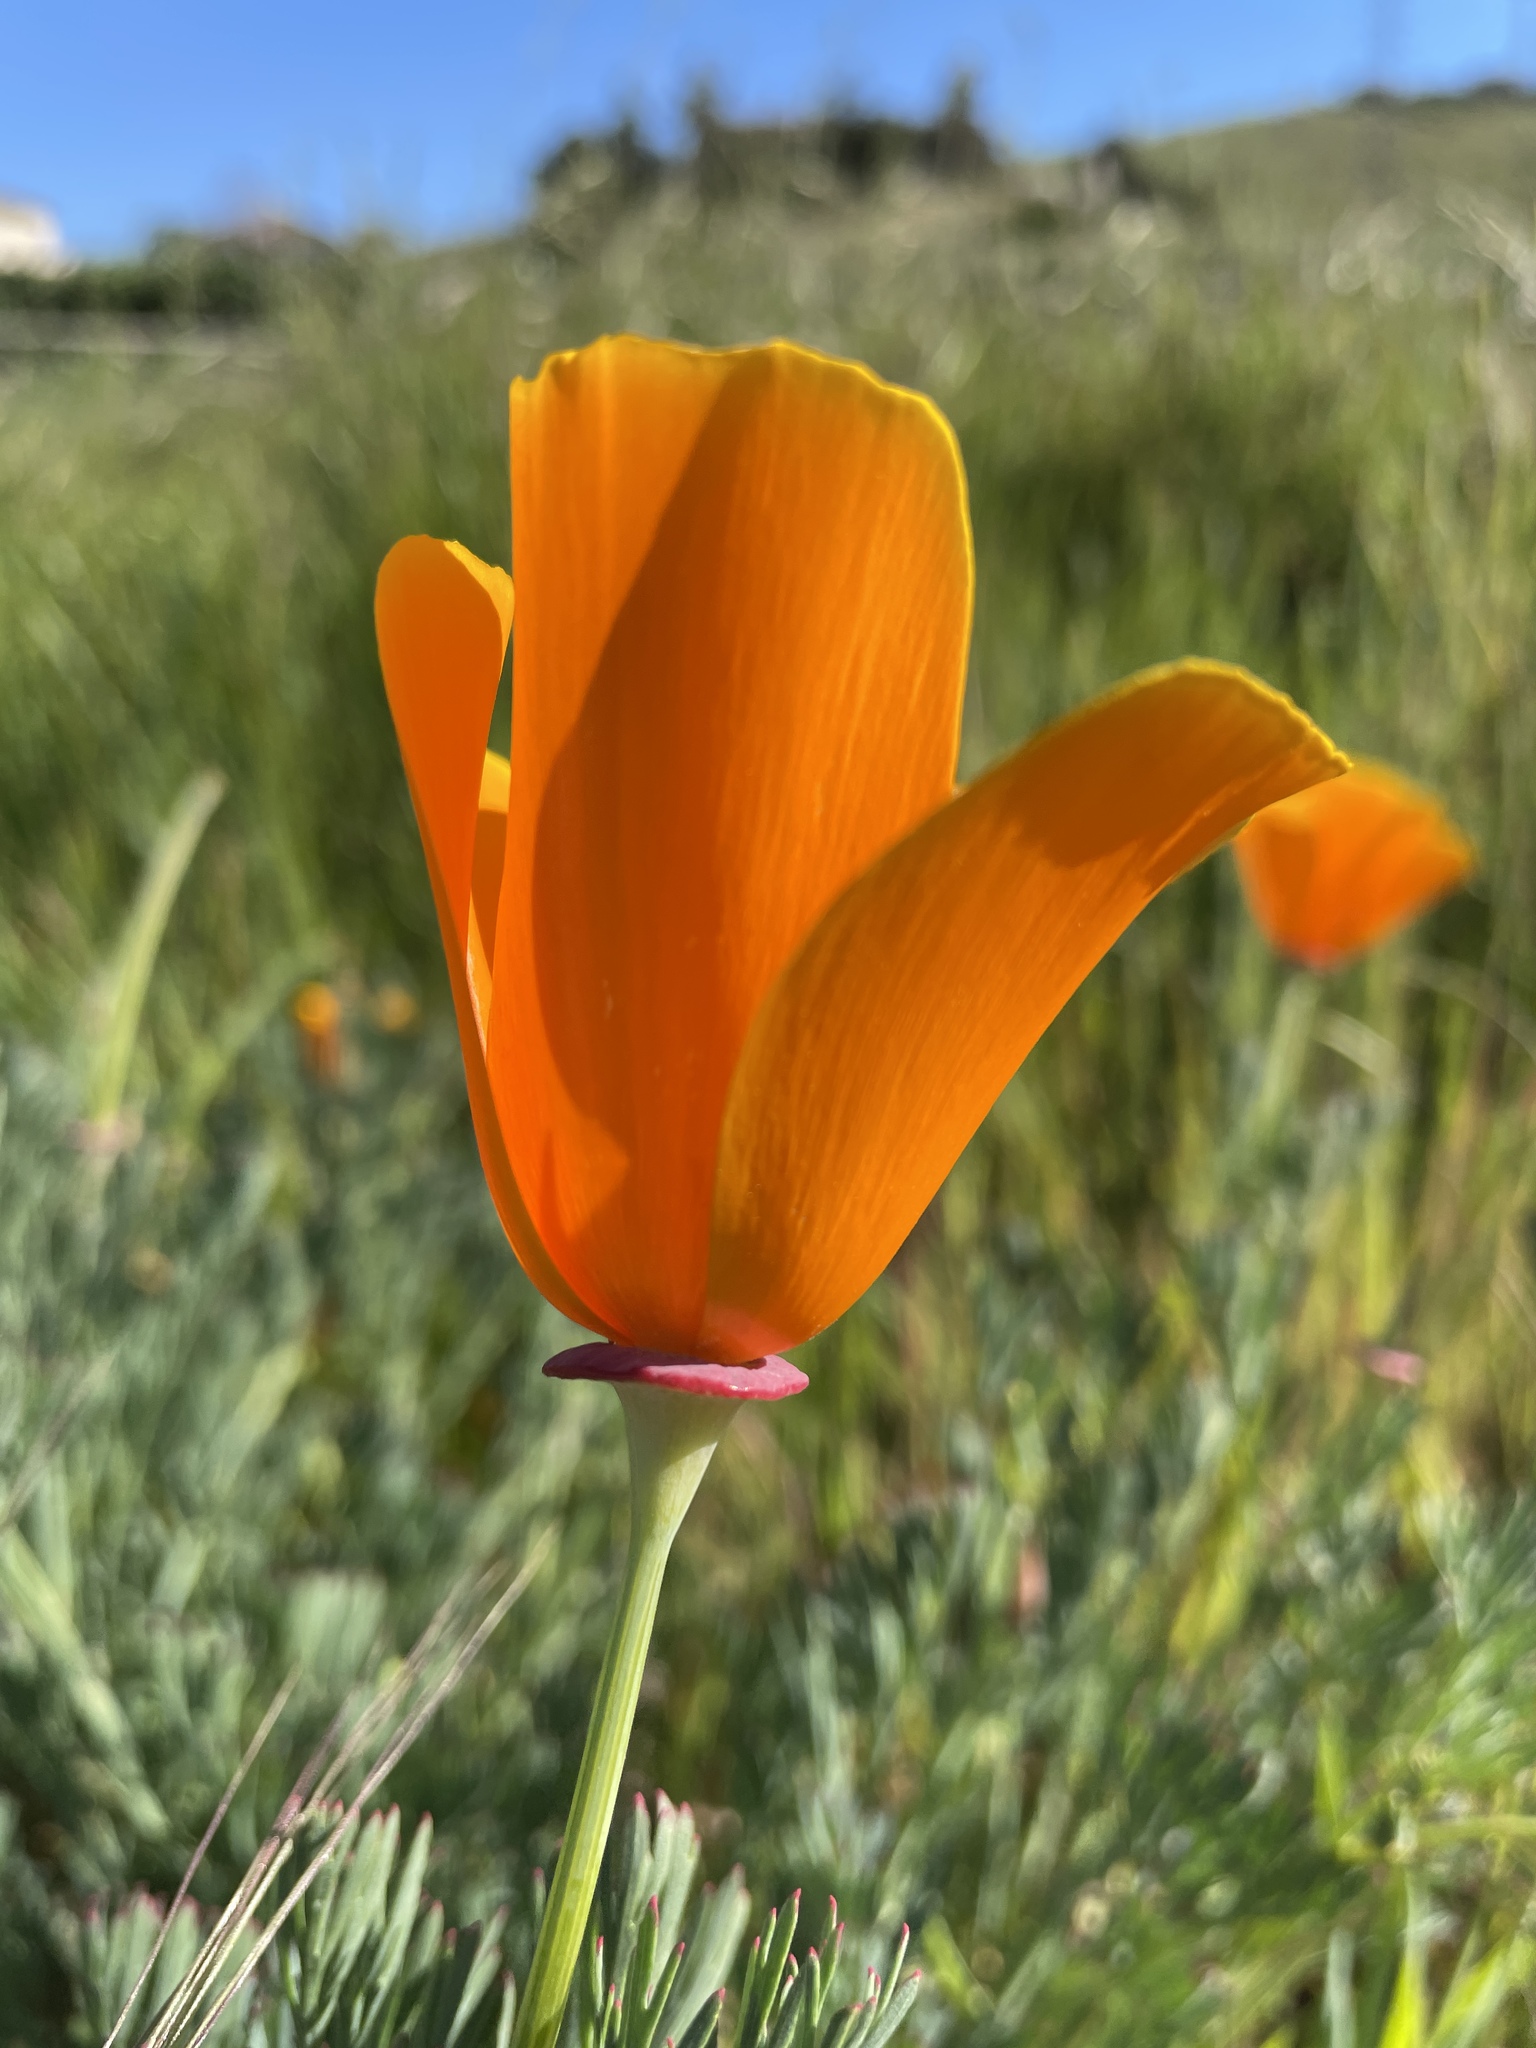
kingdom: Plantae
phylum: Tracheophyta
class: Magnoliopsida
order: Ranunculales
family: Papaveraceae
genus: Eschscholzia
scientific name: Eschscholzia californica
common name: California poppy
